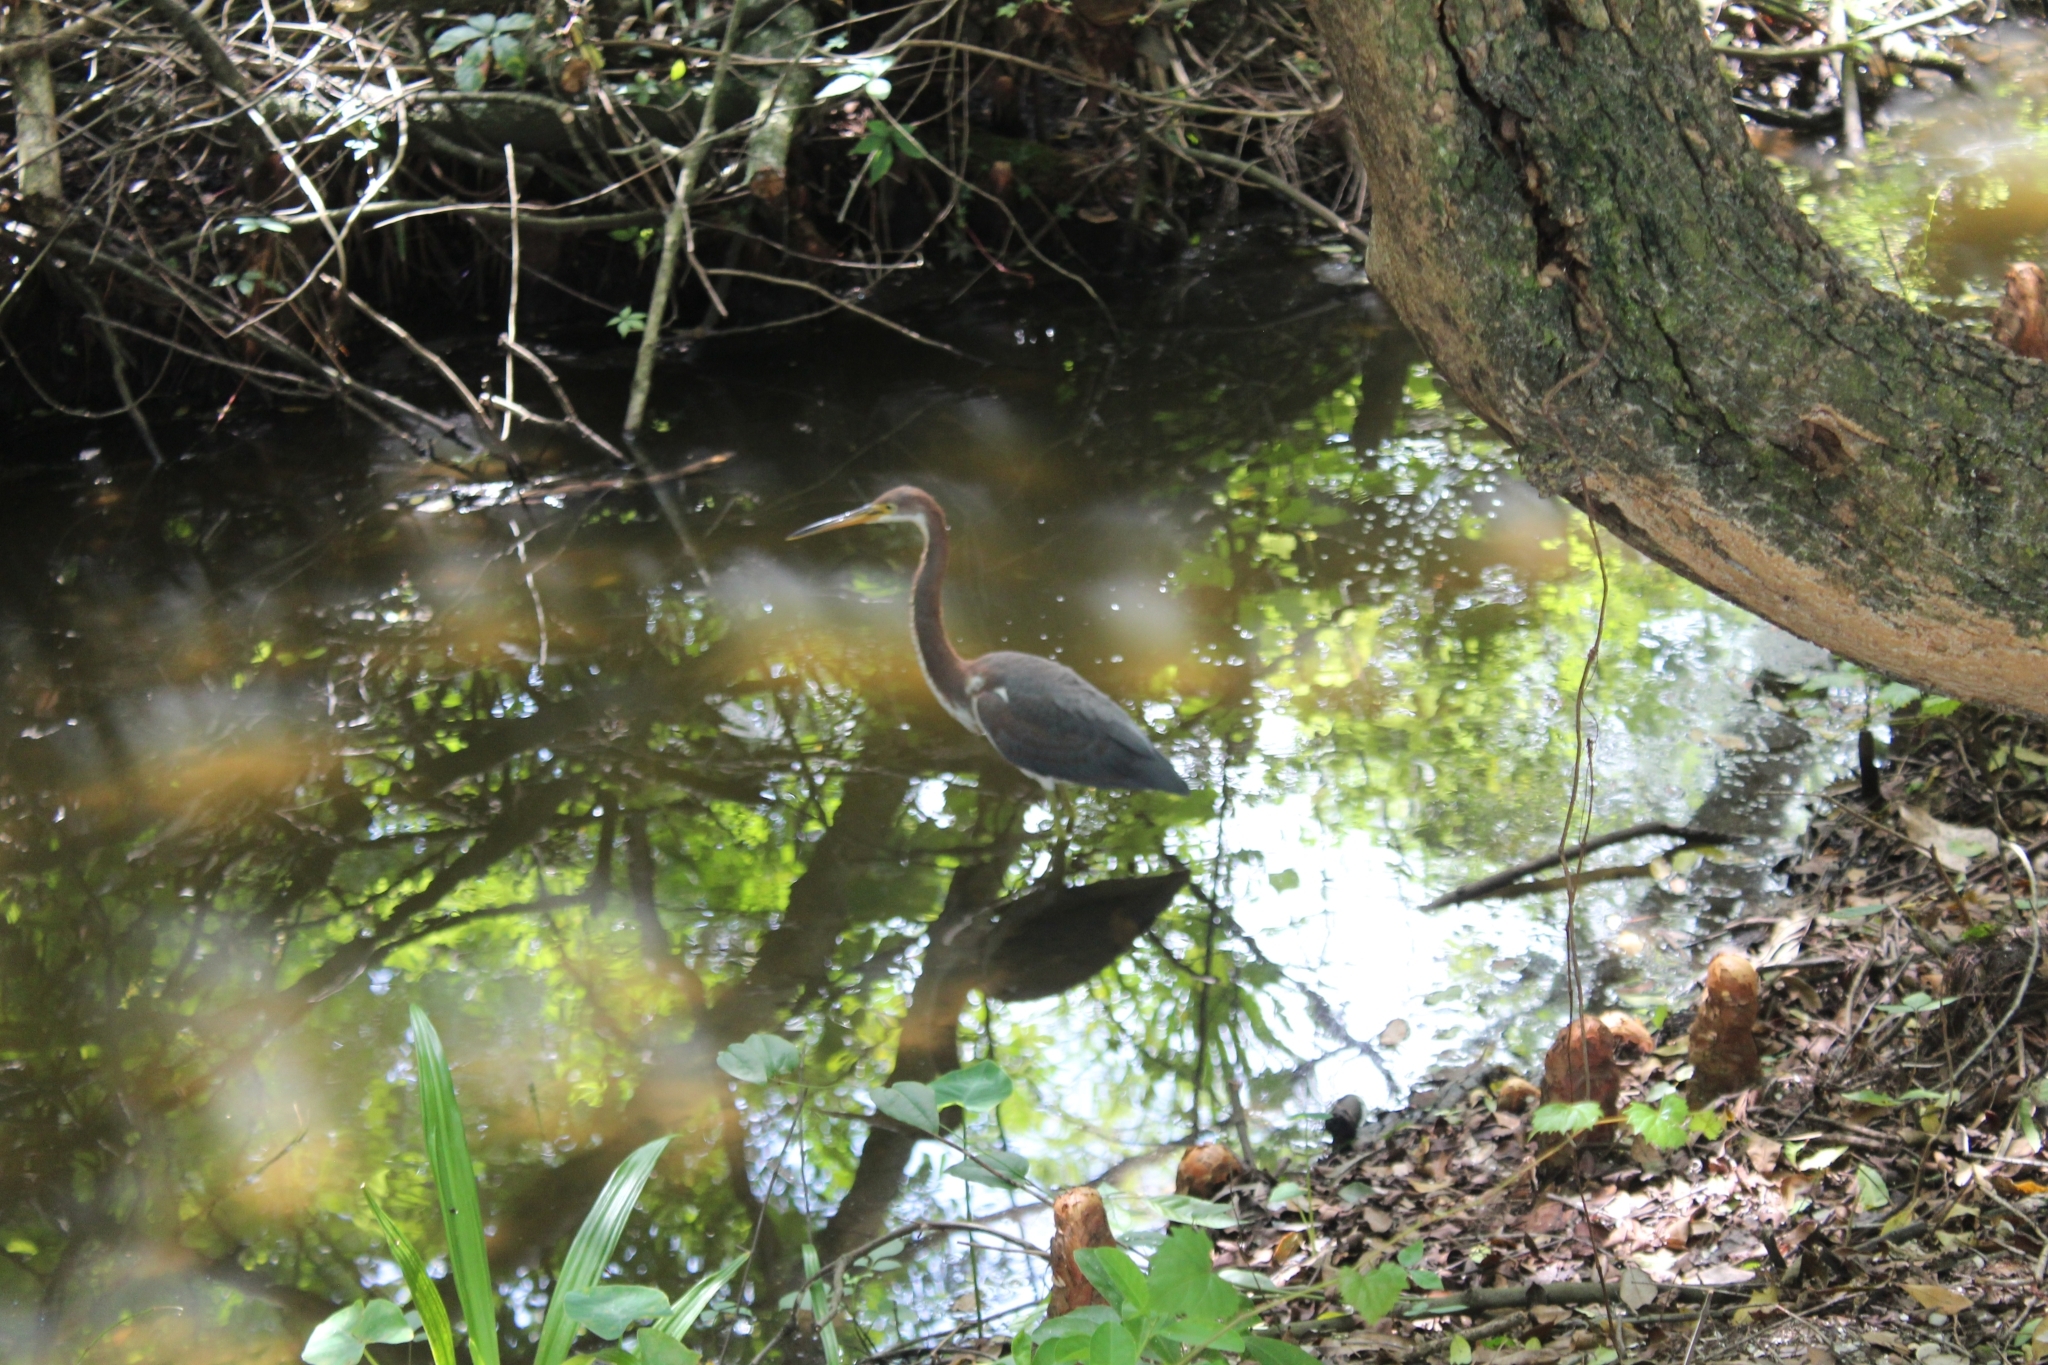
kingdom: Animalia
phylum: Chordata
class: Aves
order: Pelecaniformes
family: Ardeidae
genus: Egretta
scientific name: Egretta tricolor
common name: Tricolored heron
